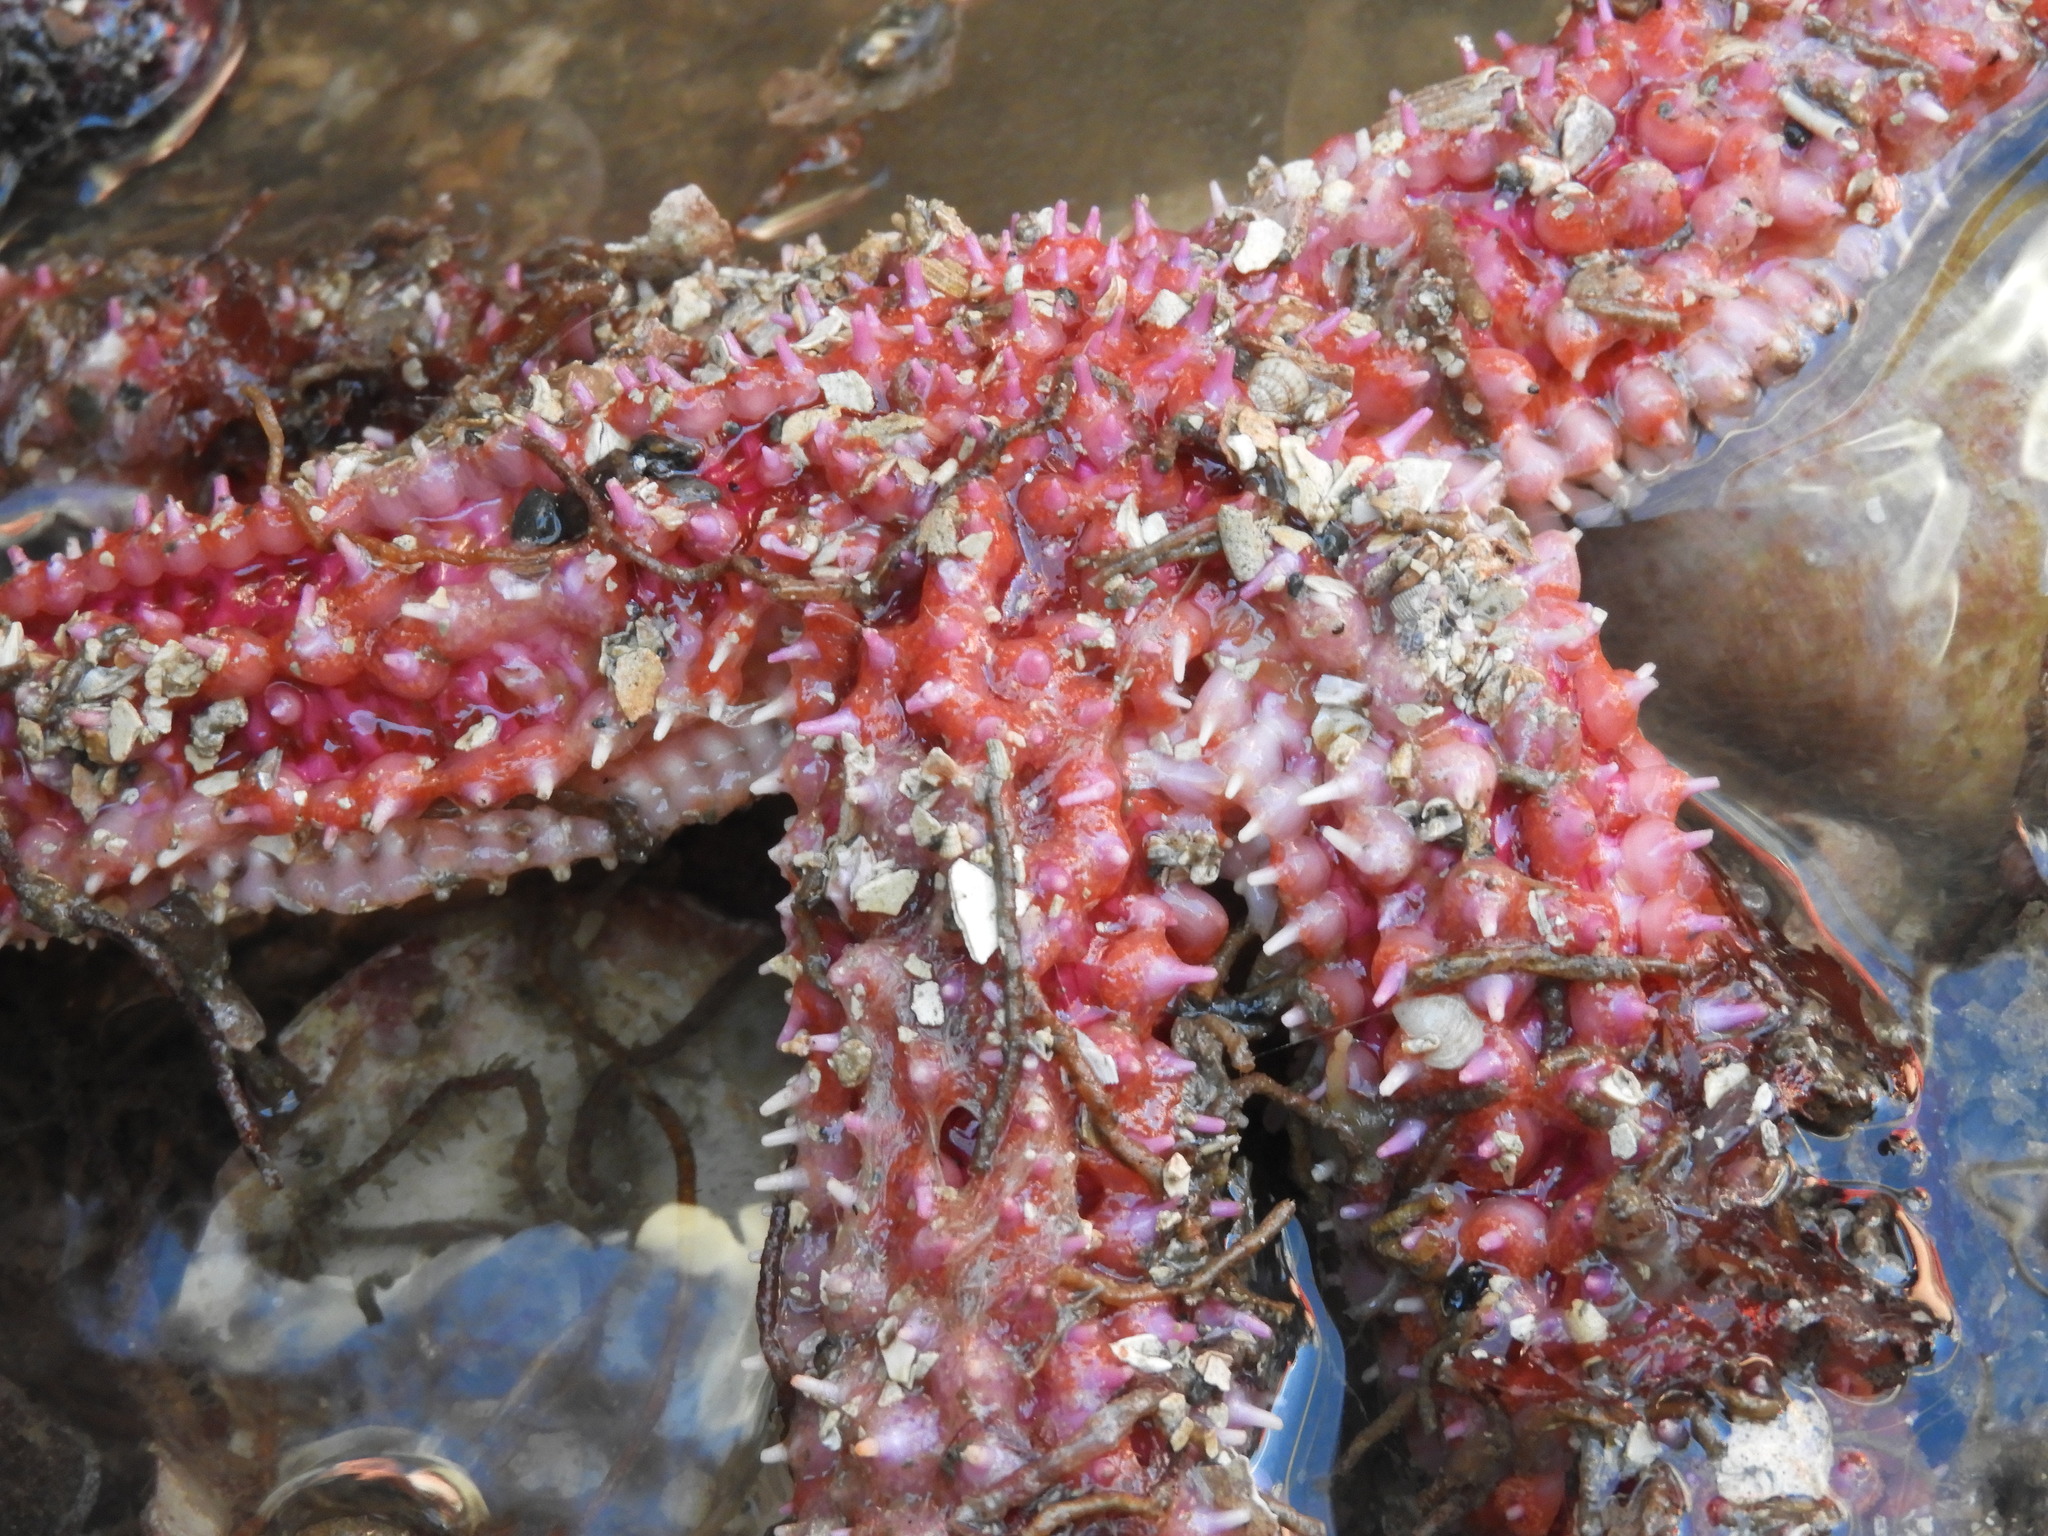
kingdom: Animalia
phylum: Echinodermata
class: Asteroidea
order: Forcipulatida
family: Asteriidae
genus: Orthasterias
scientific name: Orthasterias koehleri
